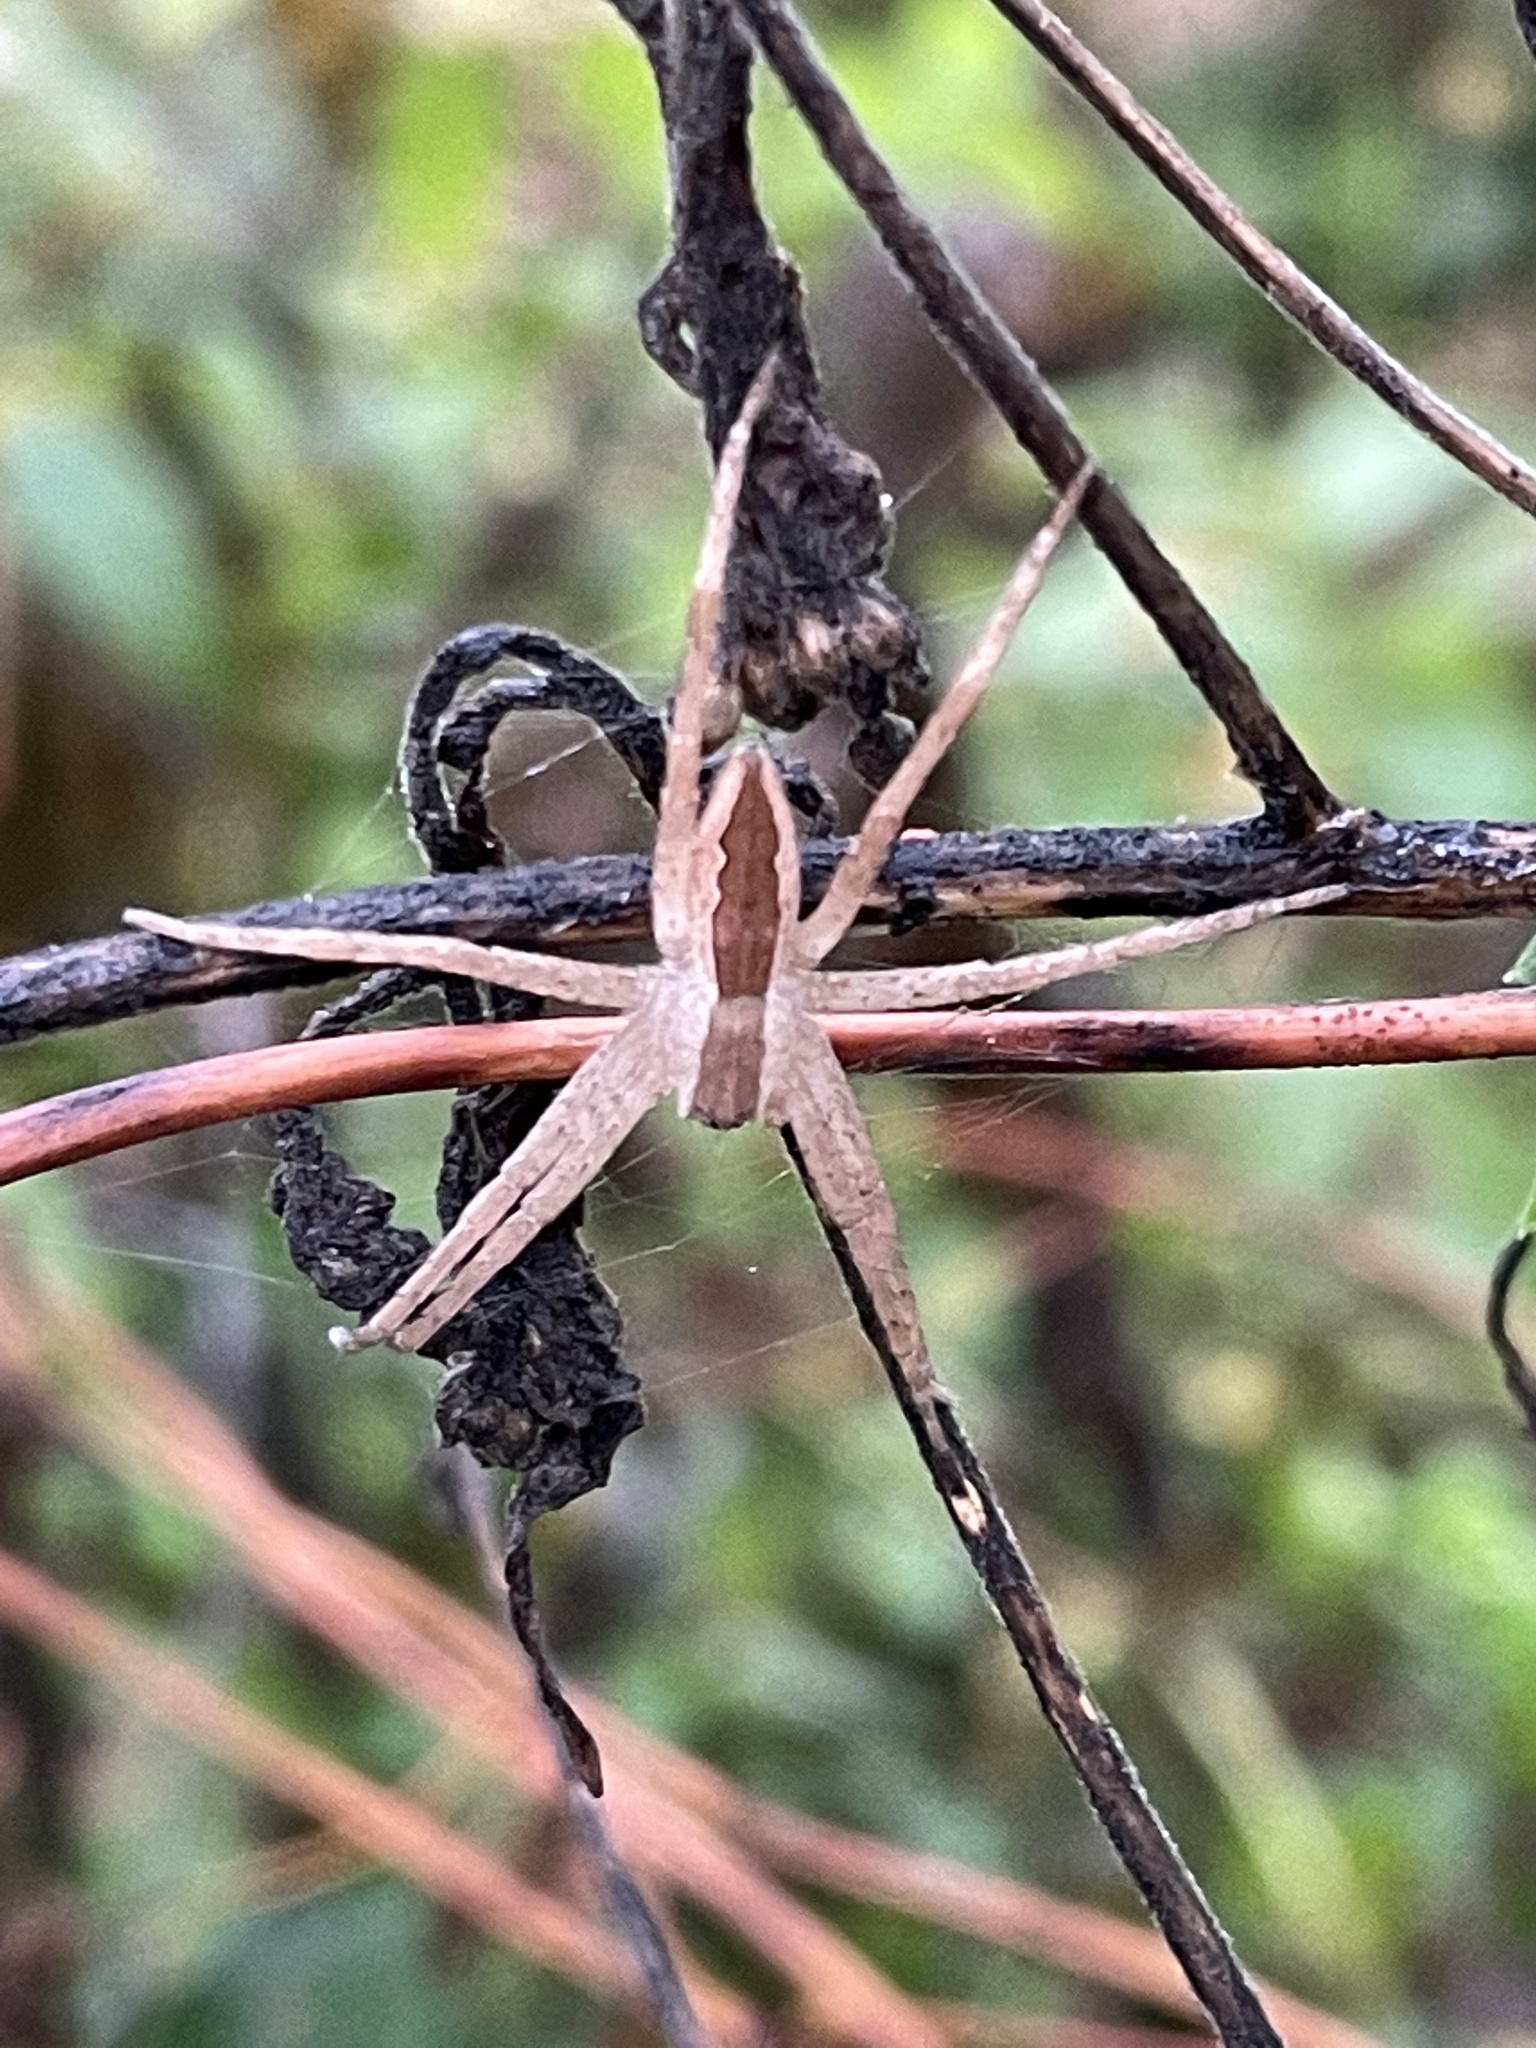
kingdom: Animalia
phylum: Arthropoda
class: Arachnida
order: Araneae
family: Pisauridae
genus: Pisaurina
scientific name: Pisaurina mira
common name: American nursery web spider
